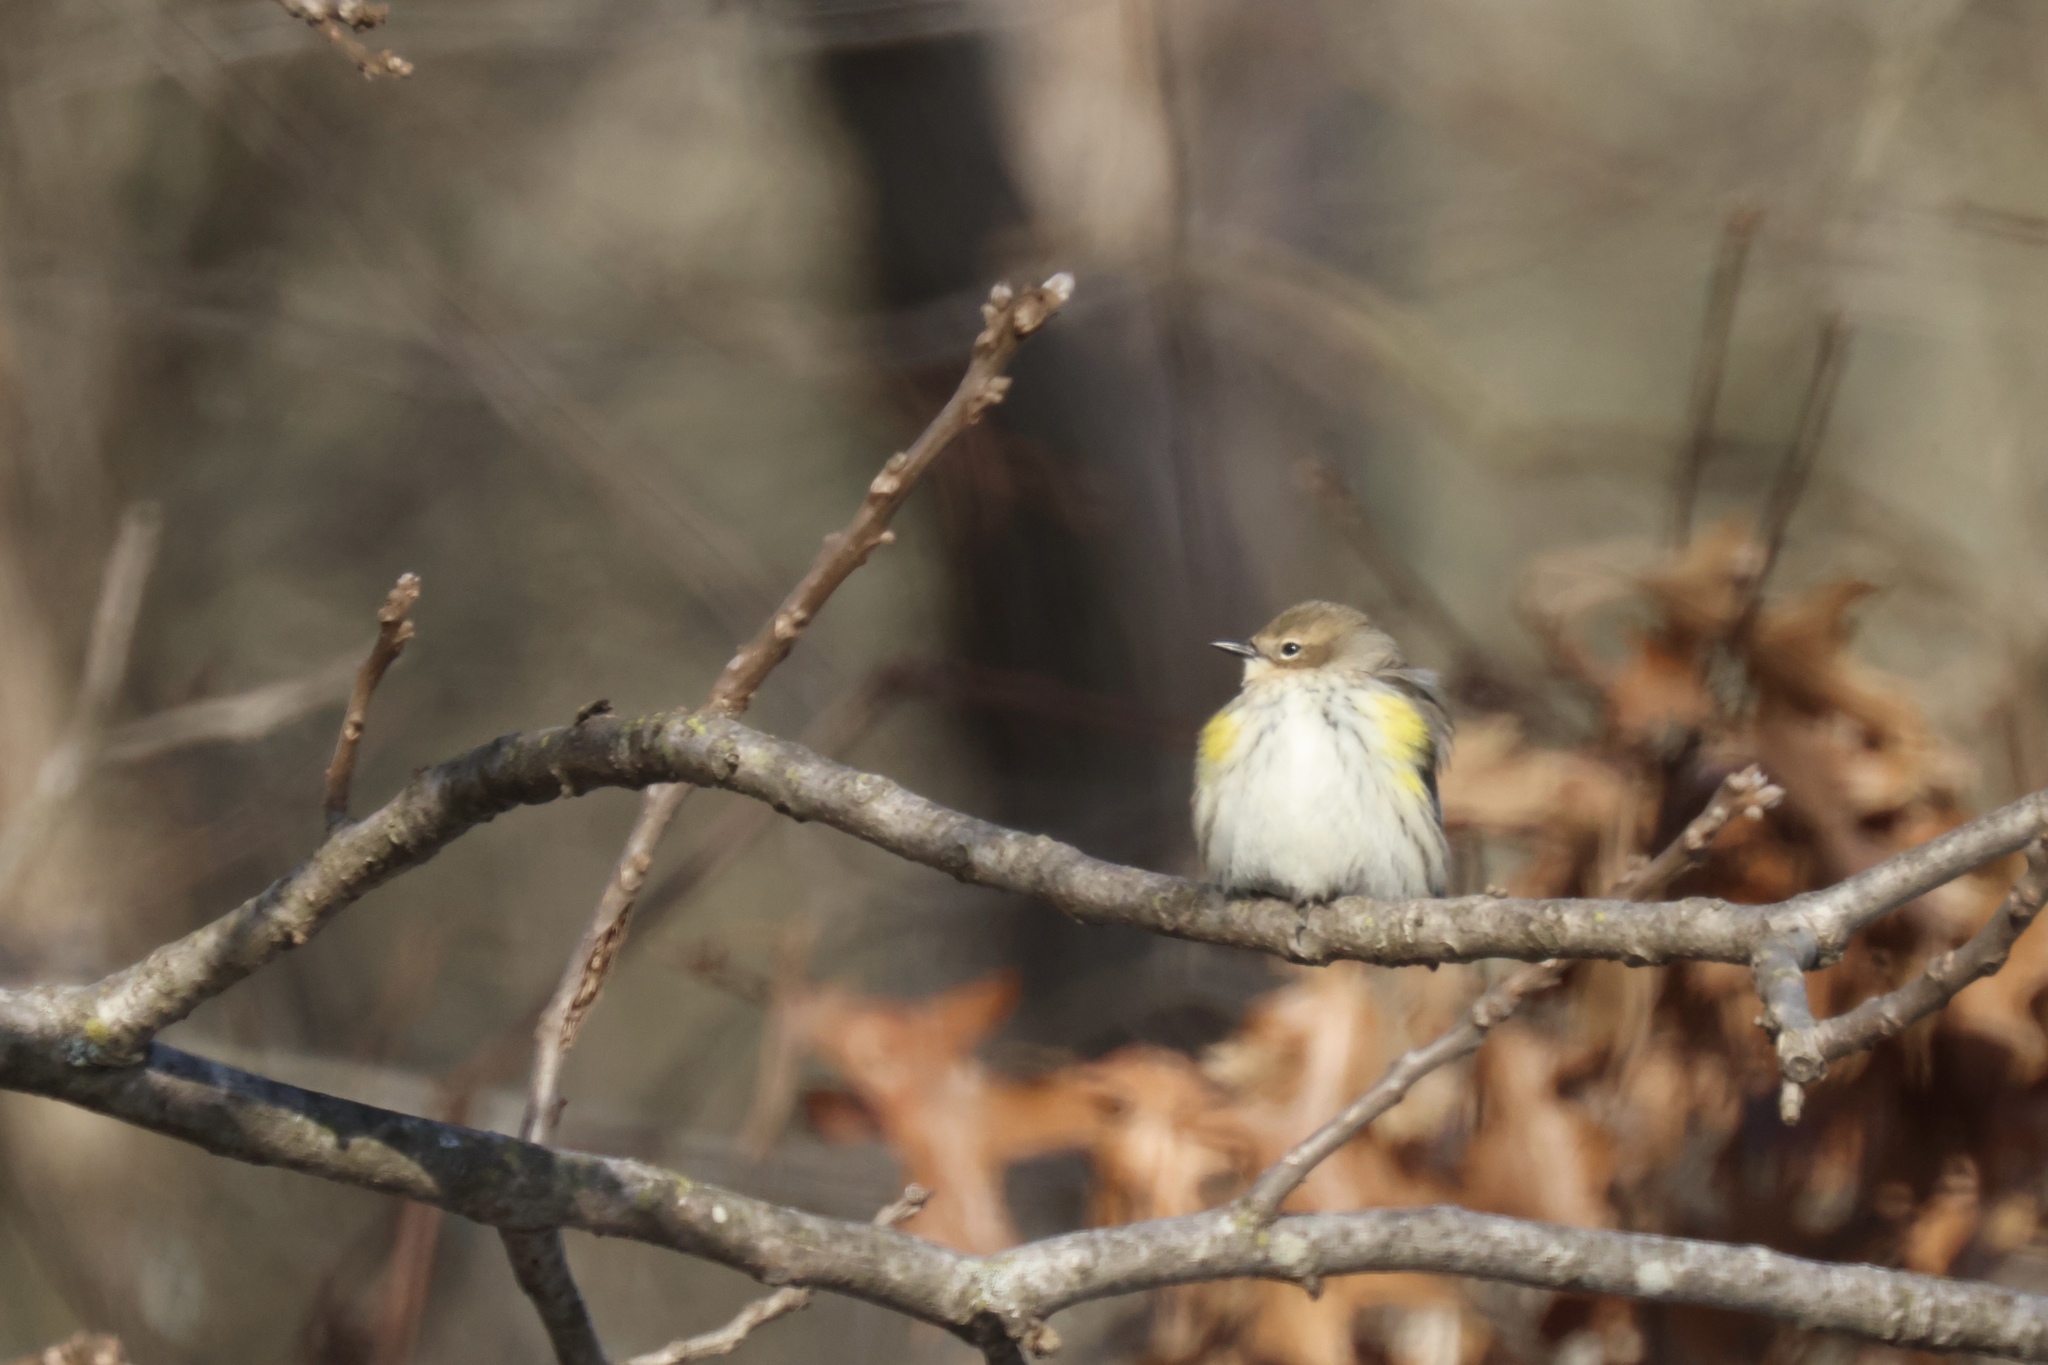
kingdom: Animalia
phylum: Chordata
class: Aves
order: Passeriformes
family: Parulidae
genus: Setophaga
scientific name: Setophaga coronata
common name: Myrtle warbler
